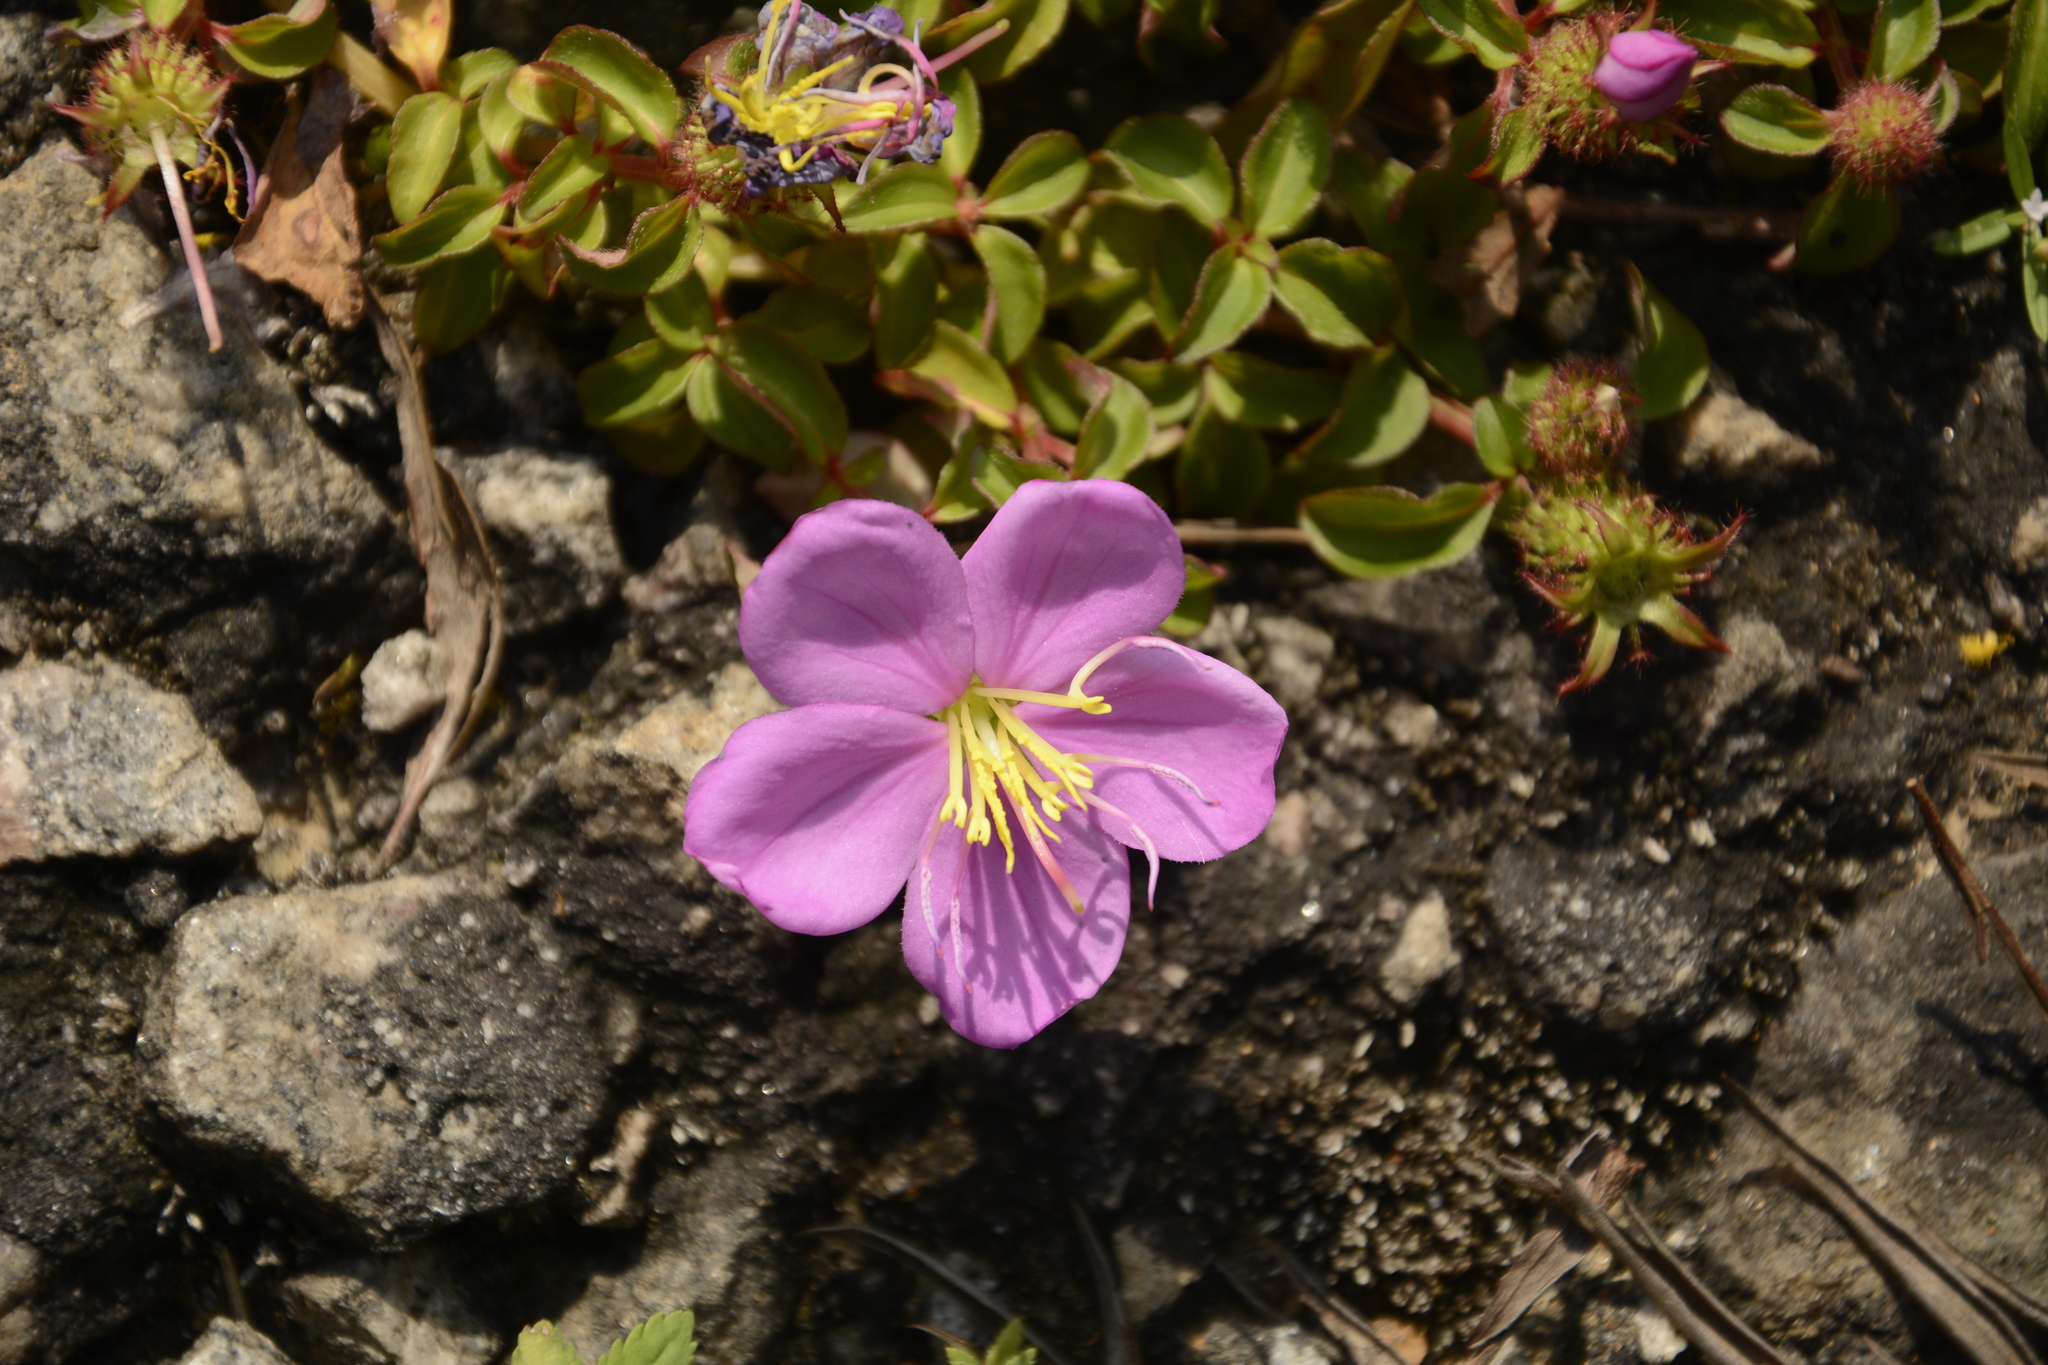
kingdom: Plantae
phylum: Tracheophyta
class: Magnoliopsida
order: Myrtales
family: Melastomataceae
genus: Heterotis
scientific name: Heterotis rotundifolia
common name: Pinklady
